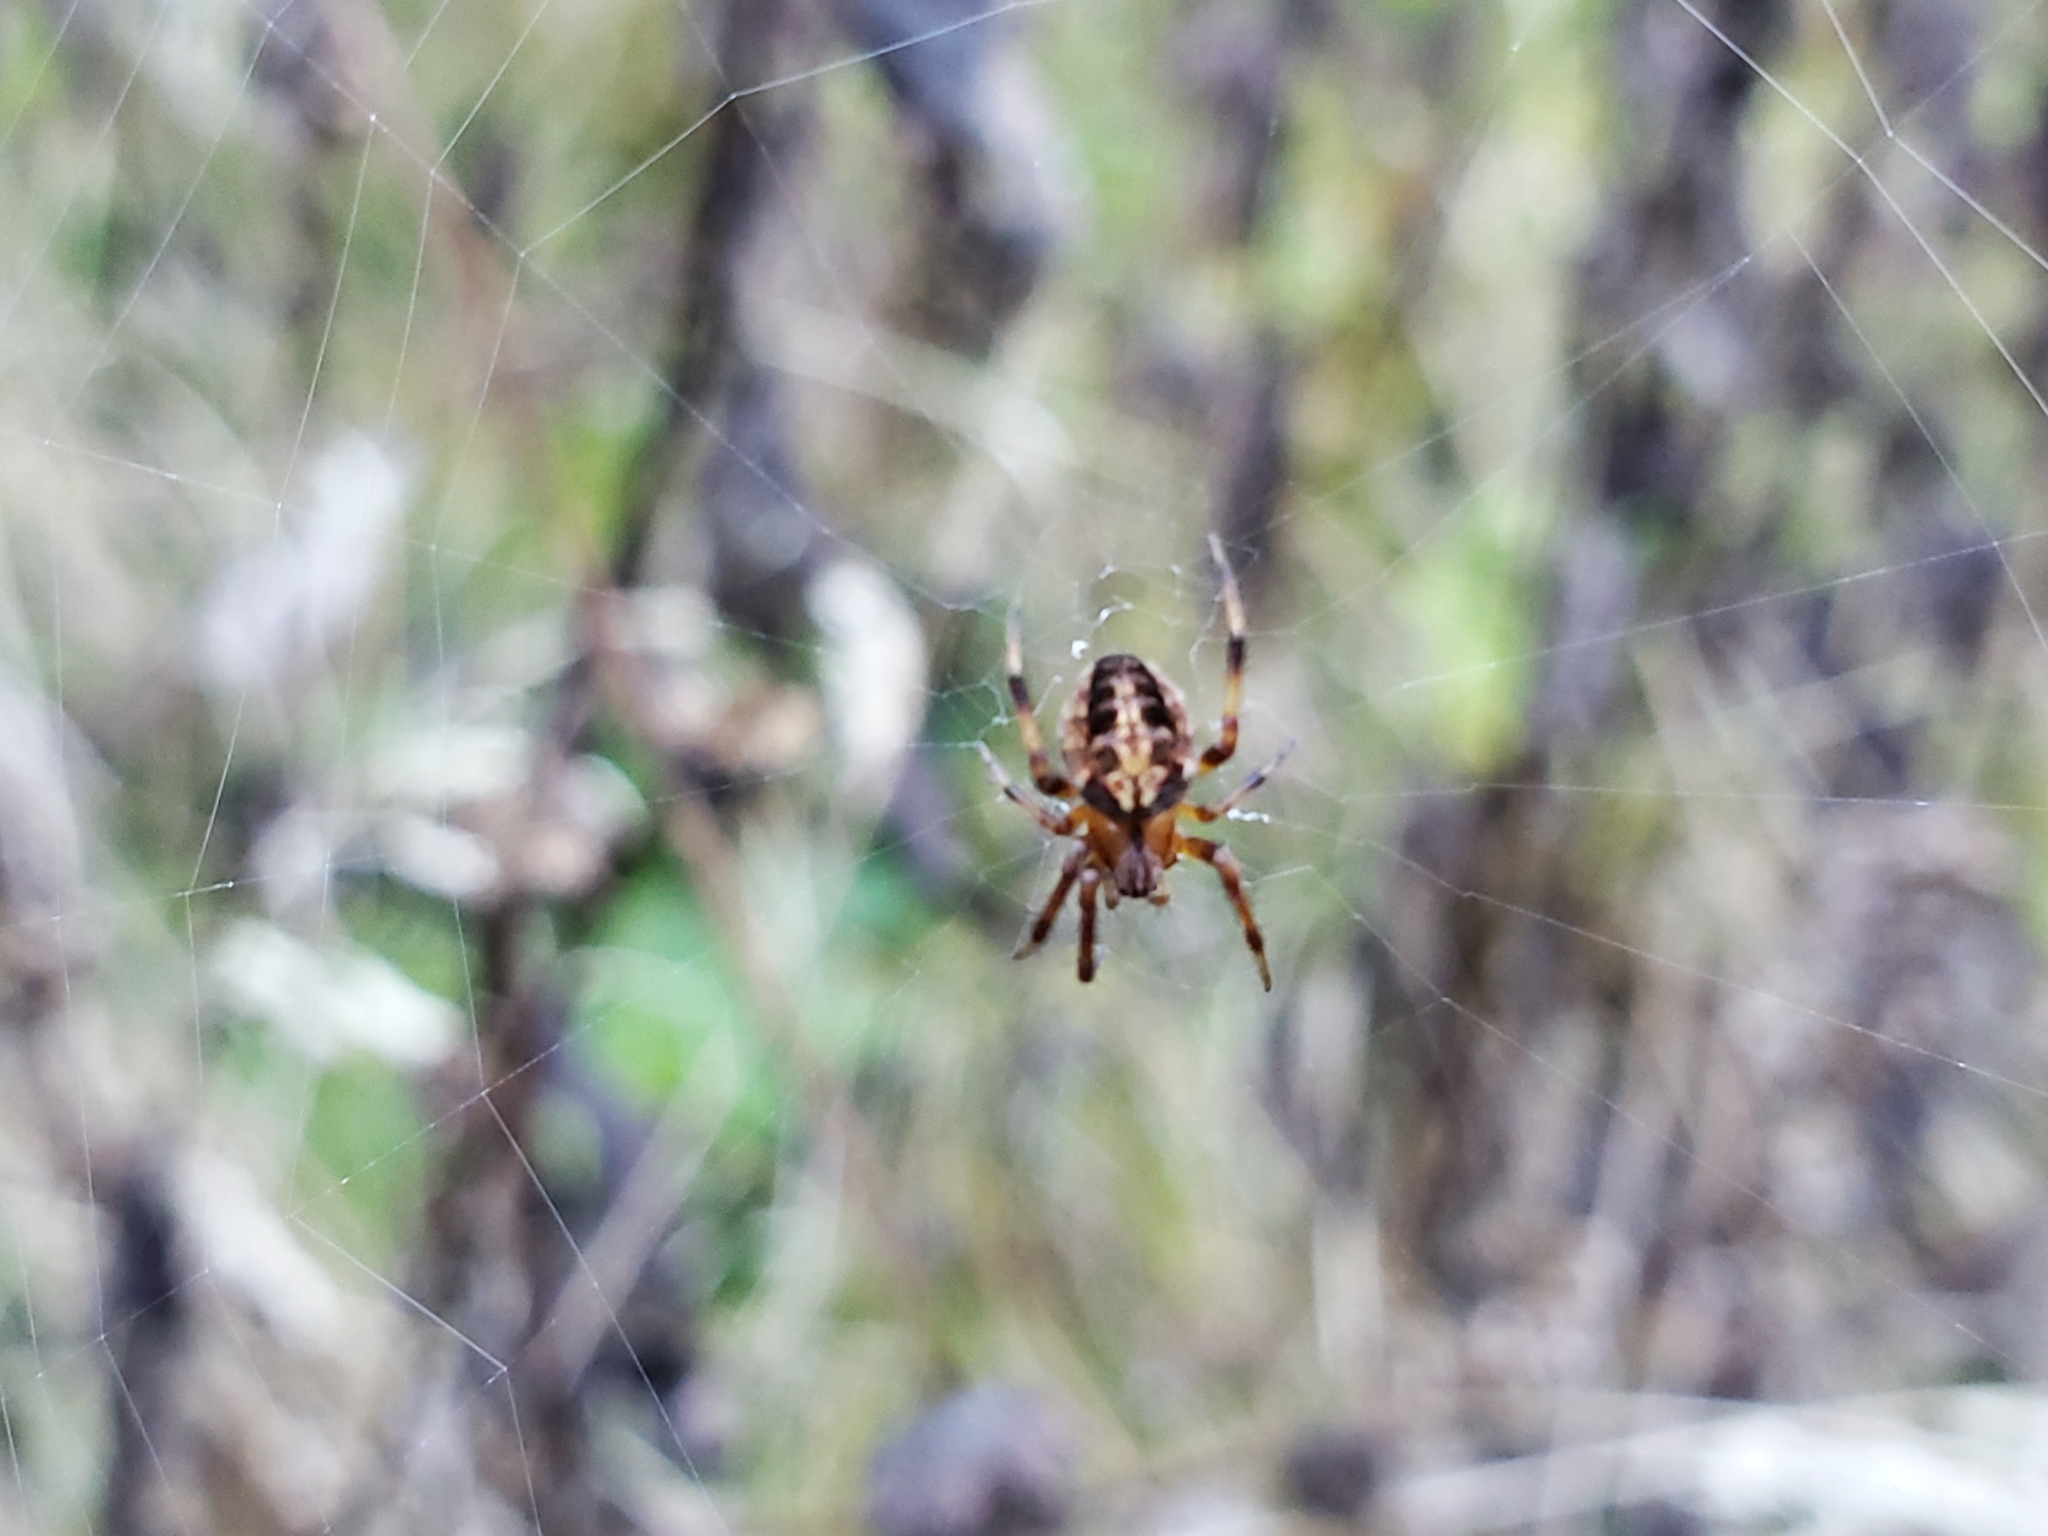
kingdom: Animalia
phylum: Arthropoda
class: Arachnida
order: Araneae
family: Araneidae
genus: Neoscona
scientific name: Neoscona arabesca
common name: Orb weavers
